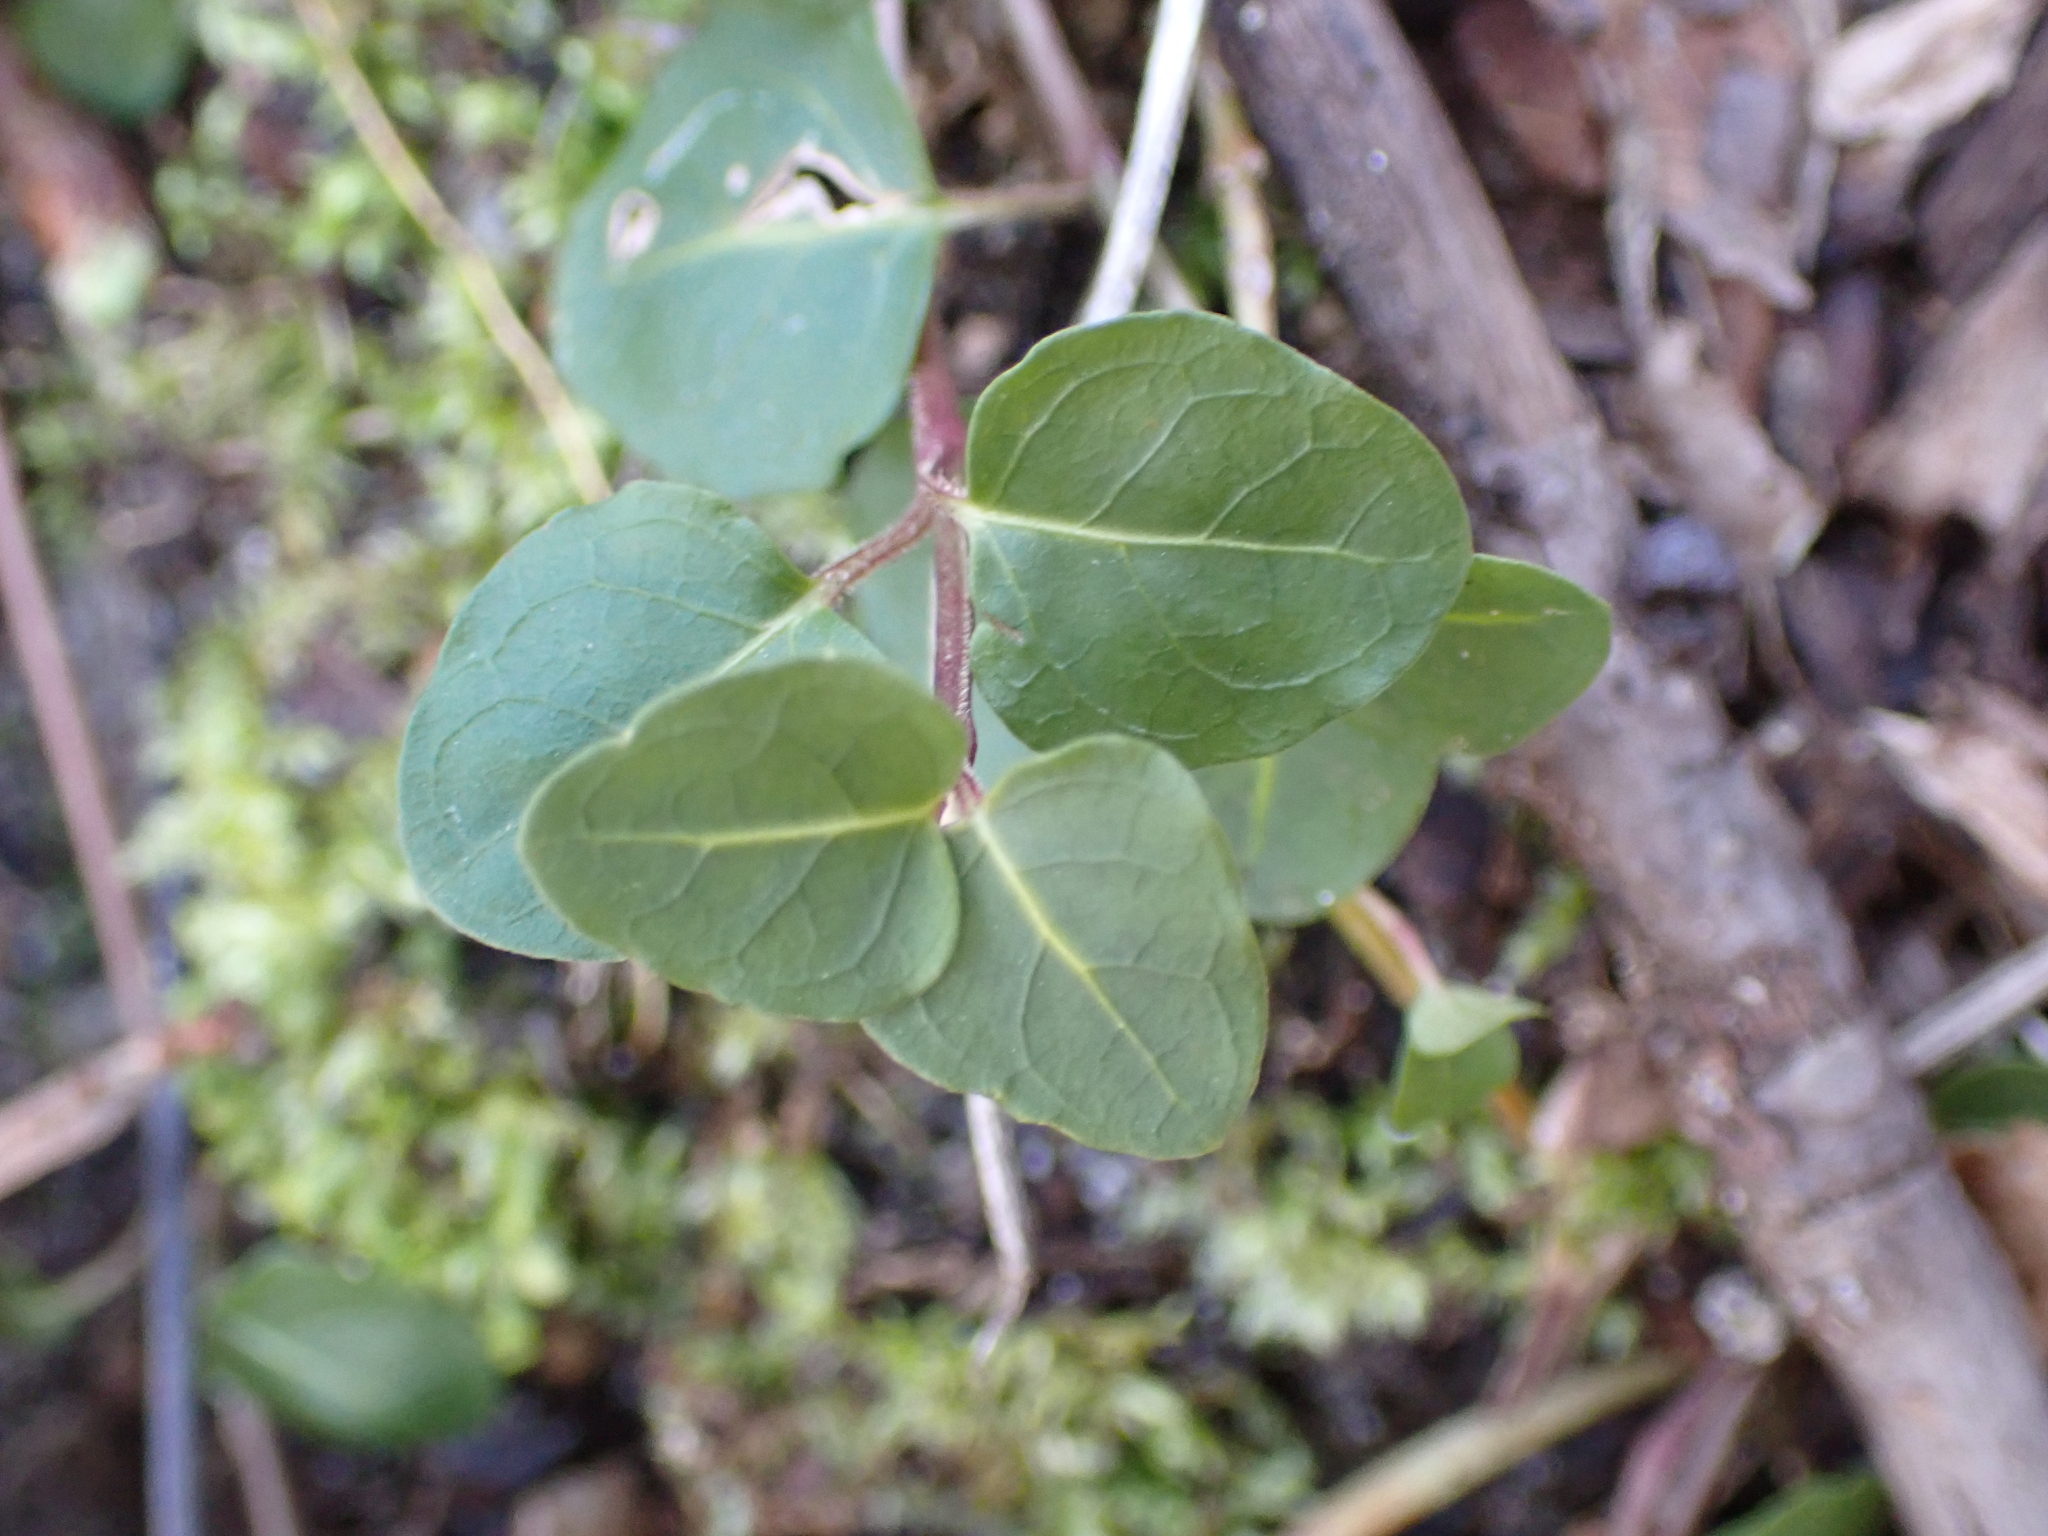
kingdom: Plantae
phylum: Tracheophyta
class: Magnoliopsida
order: Gentianales
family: Rubiaceae
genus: Mitchella
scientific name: Mitchella repens
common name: Partridge-berry
